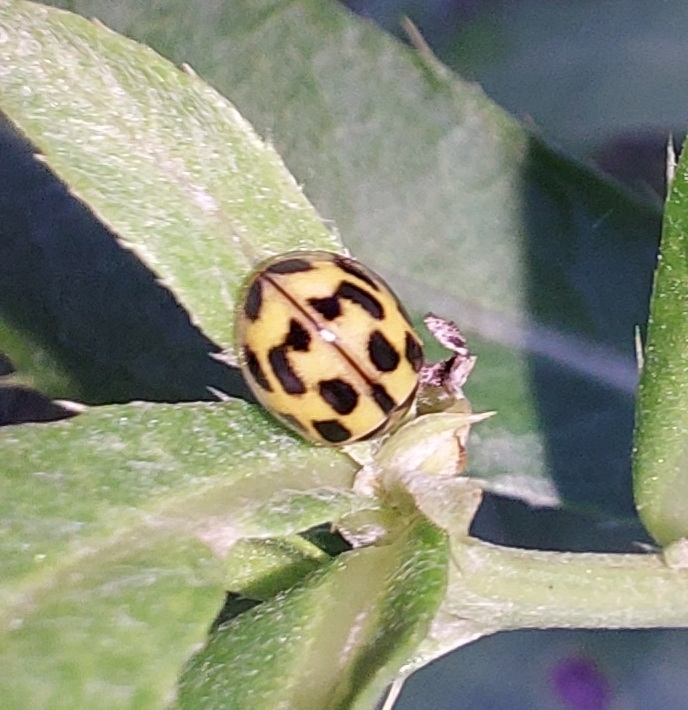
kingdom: Animalia
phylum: Arthropoda
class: Insecta
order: Coleoptera
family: Coccinellidae
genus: Propylaea
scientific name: Propylaea quatuordecimpunctata
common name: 14-spotted ladybird beetle
